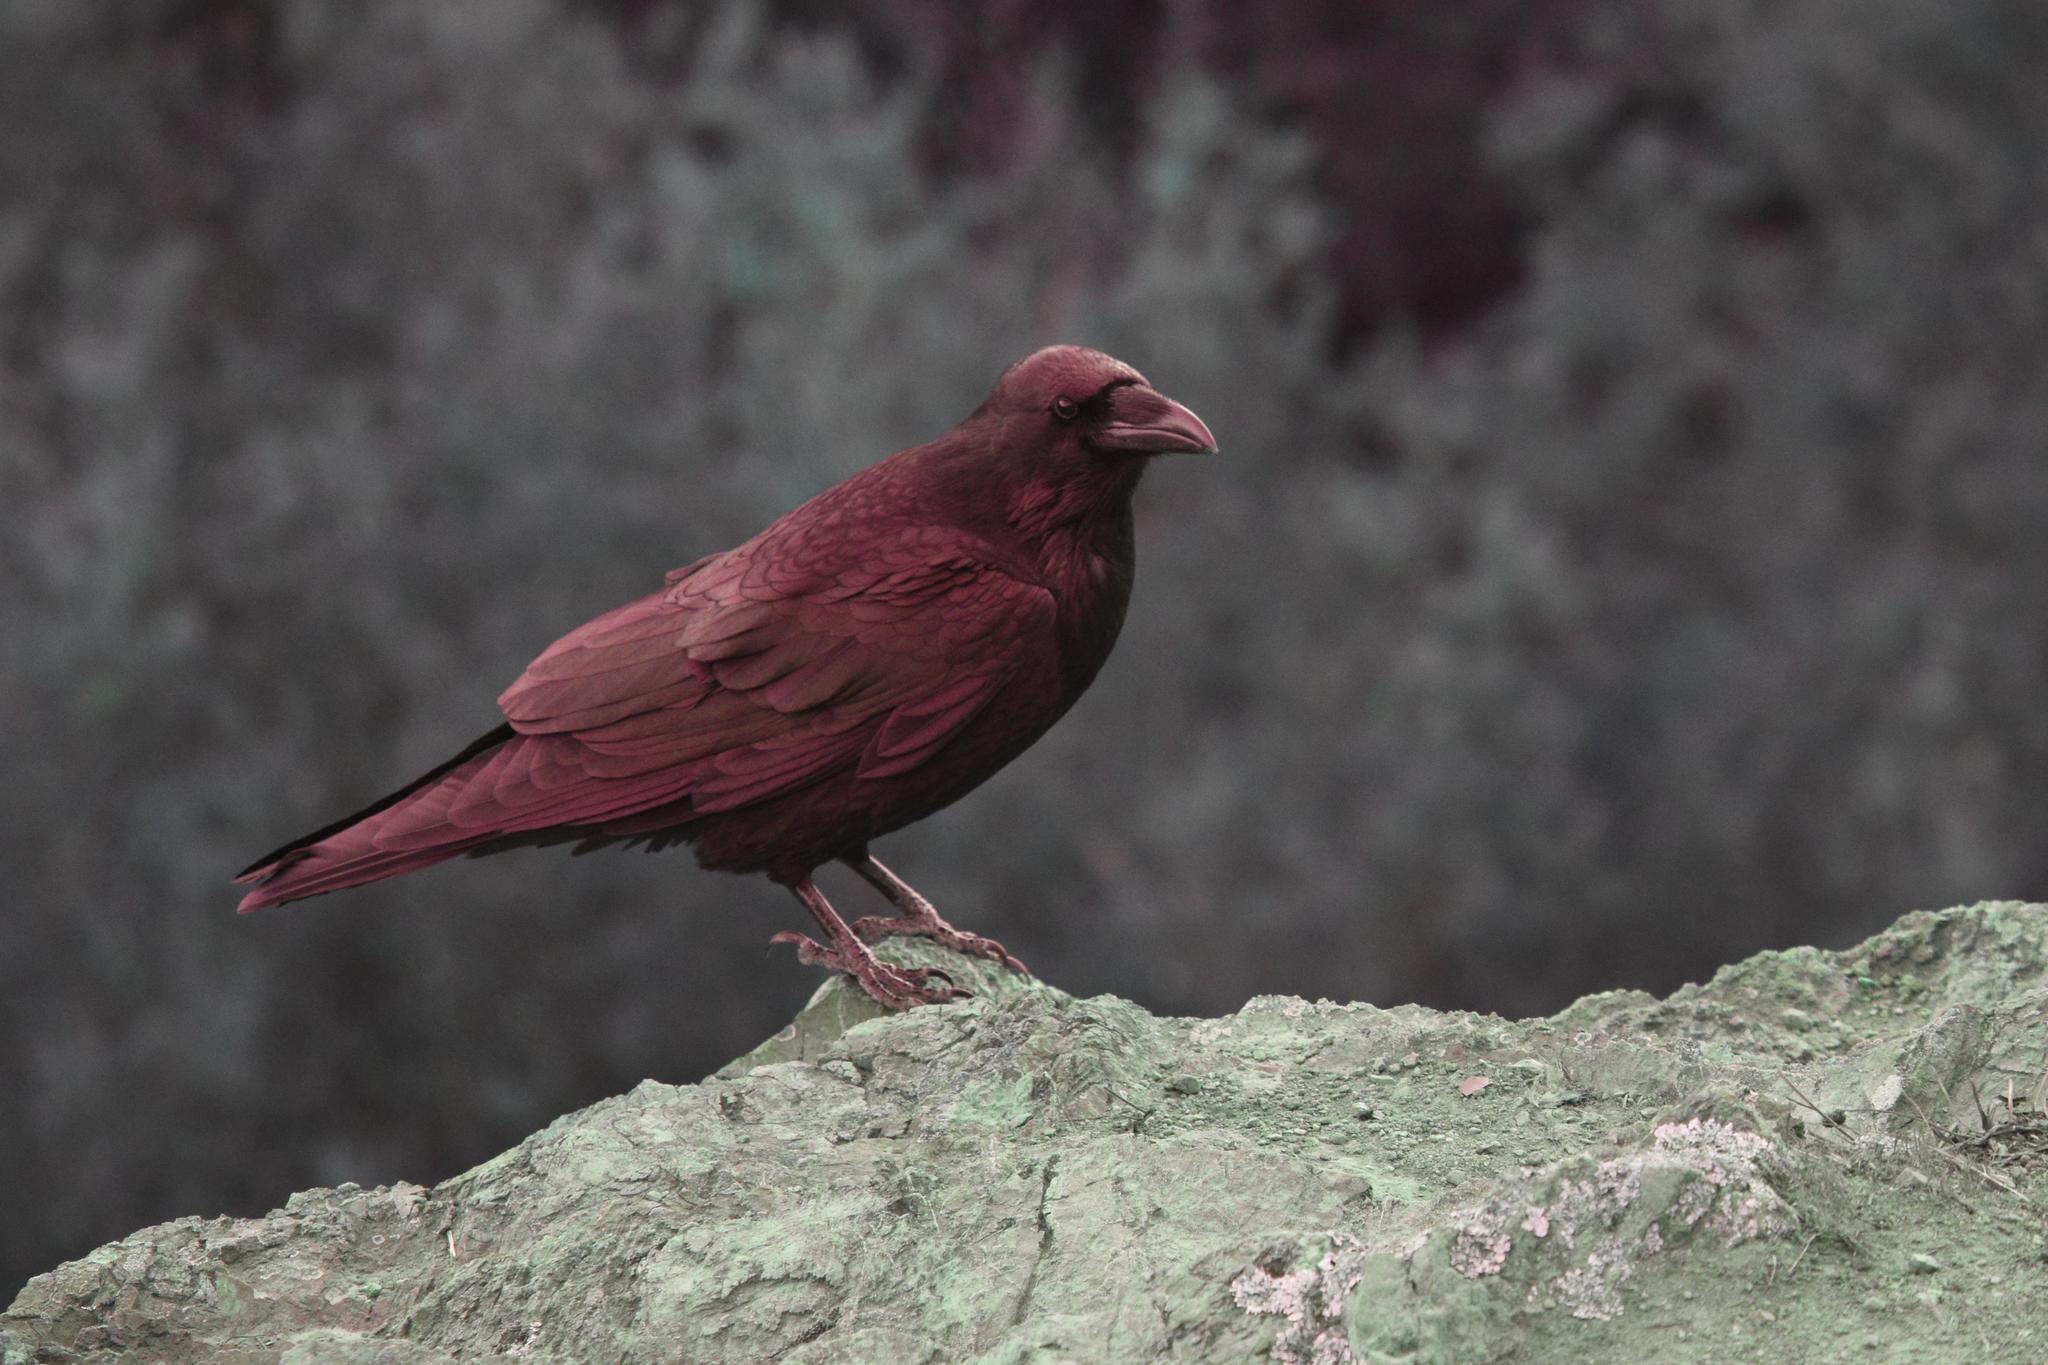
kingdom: Animalia
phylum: Chordata
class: Aves
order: Passeriformes
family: Corvidae
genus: Corvus
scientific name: Corvus corax
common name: Common raven
